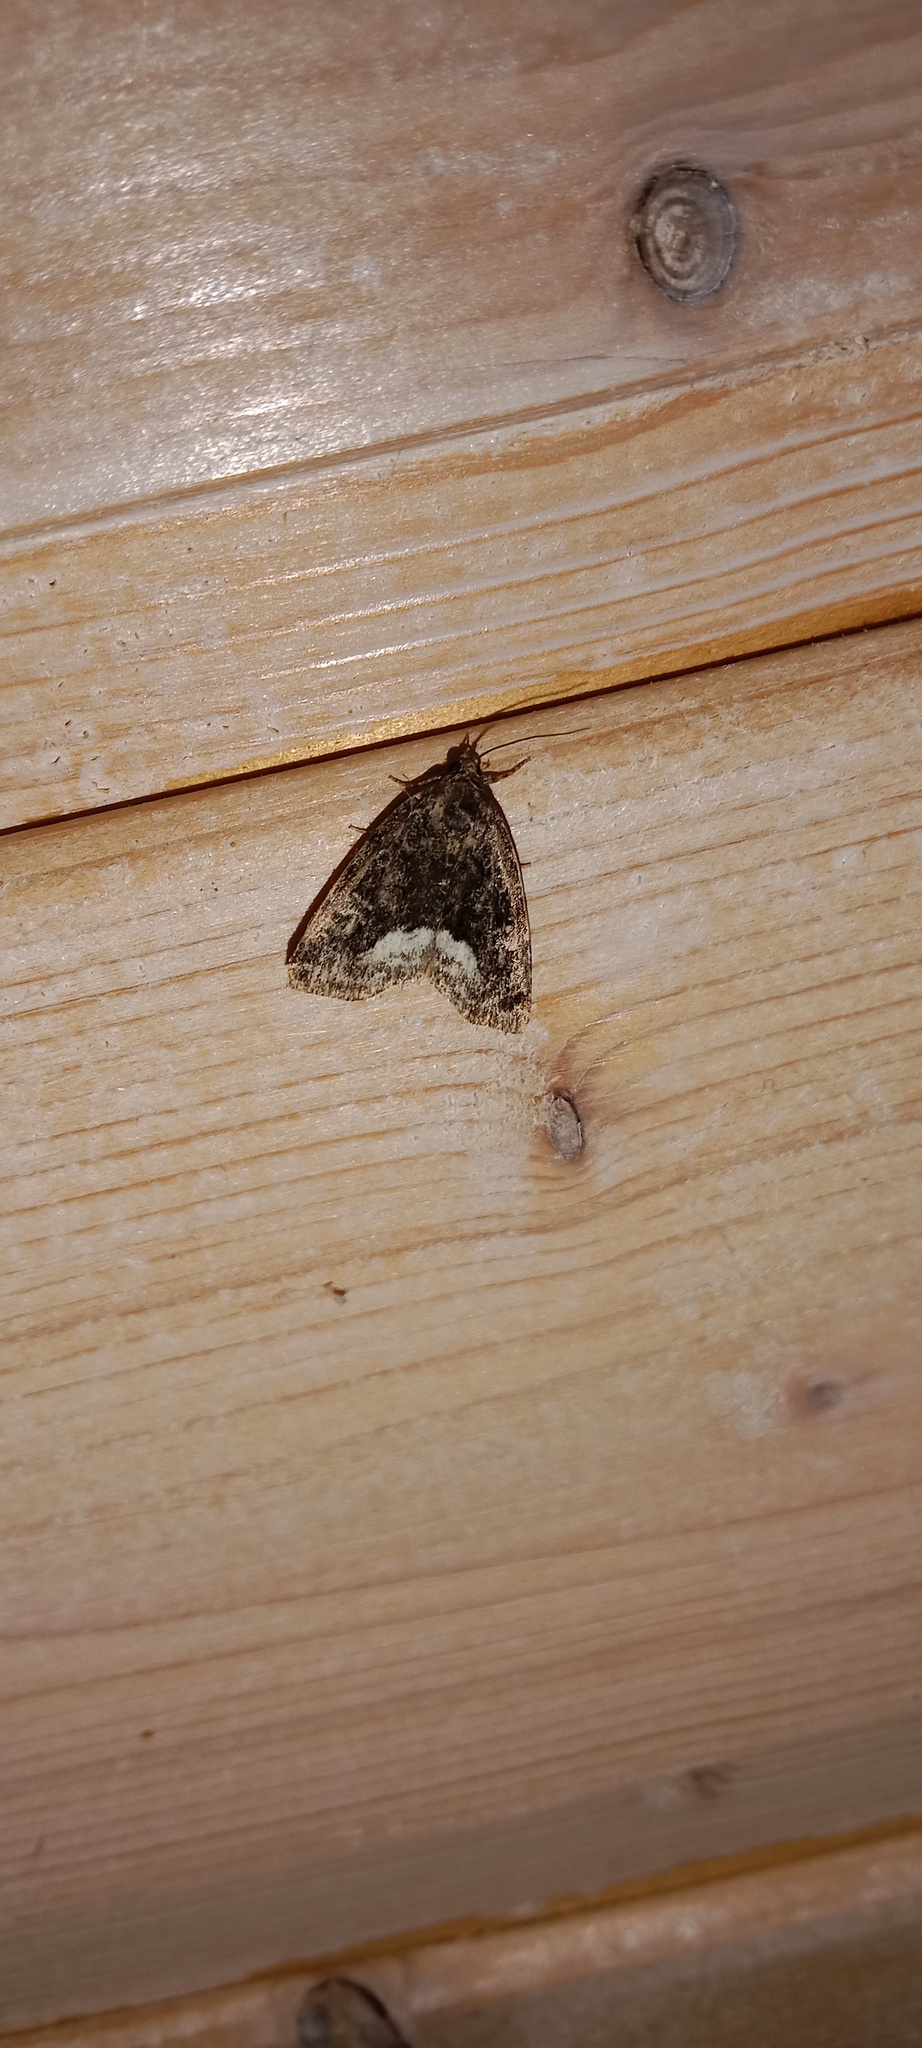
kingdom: Animalia
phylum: Arthropoda
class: Insecta
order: Lepidoptera
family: Noctuidae
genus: Deltote
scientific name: Deltote pygarga
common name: Marbled white spot
